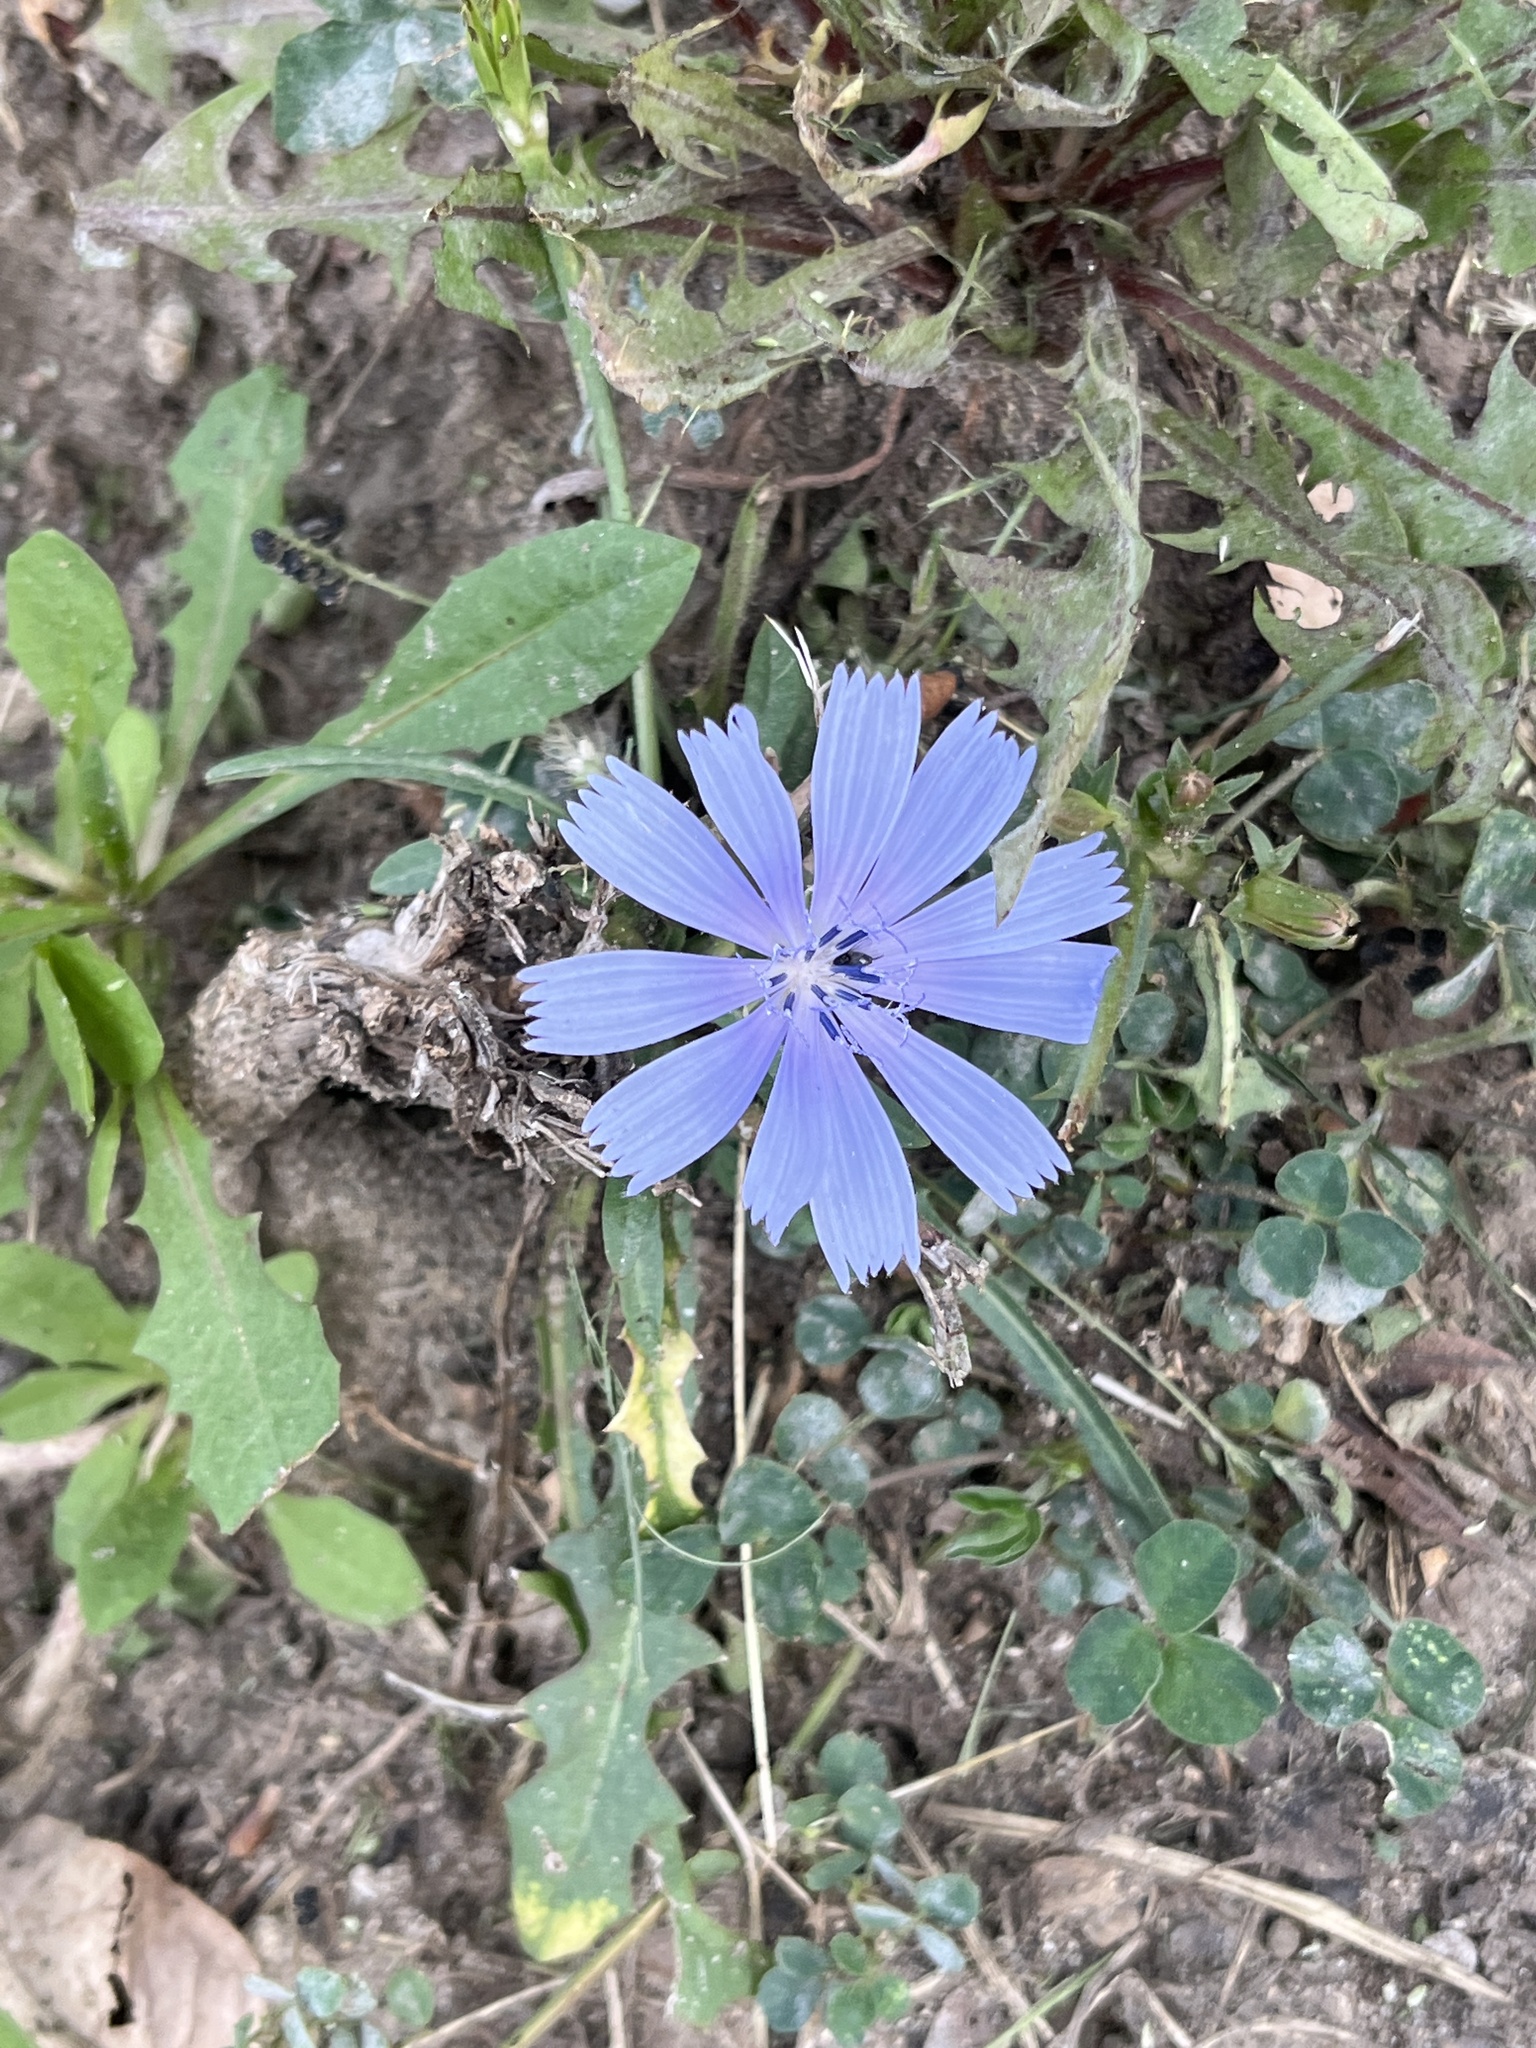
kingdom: Plantae
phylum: Tracheophyta
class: Magnoliopsida
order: Asterales
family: Asteraceae
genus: Cichorium
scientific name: Cichorium intybus
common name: Chicory
